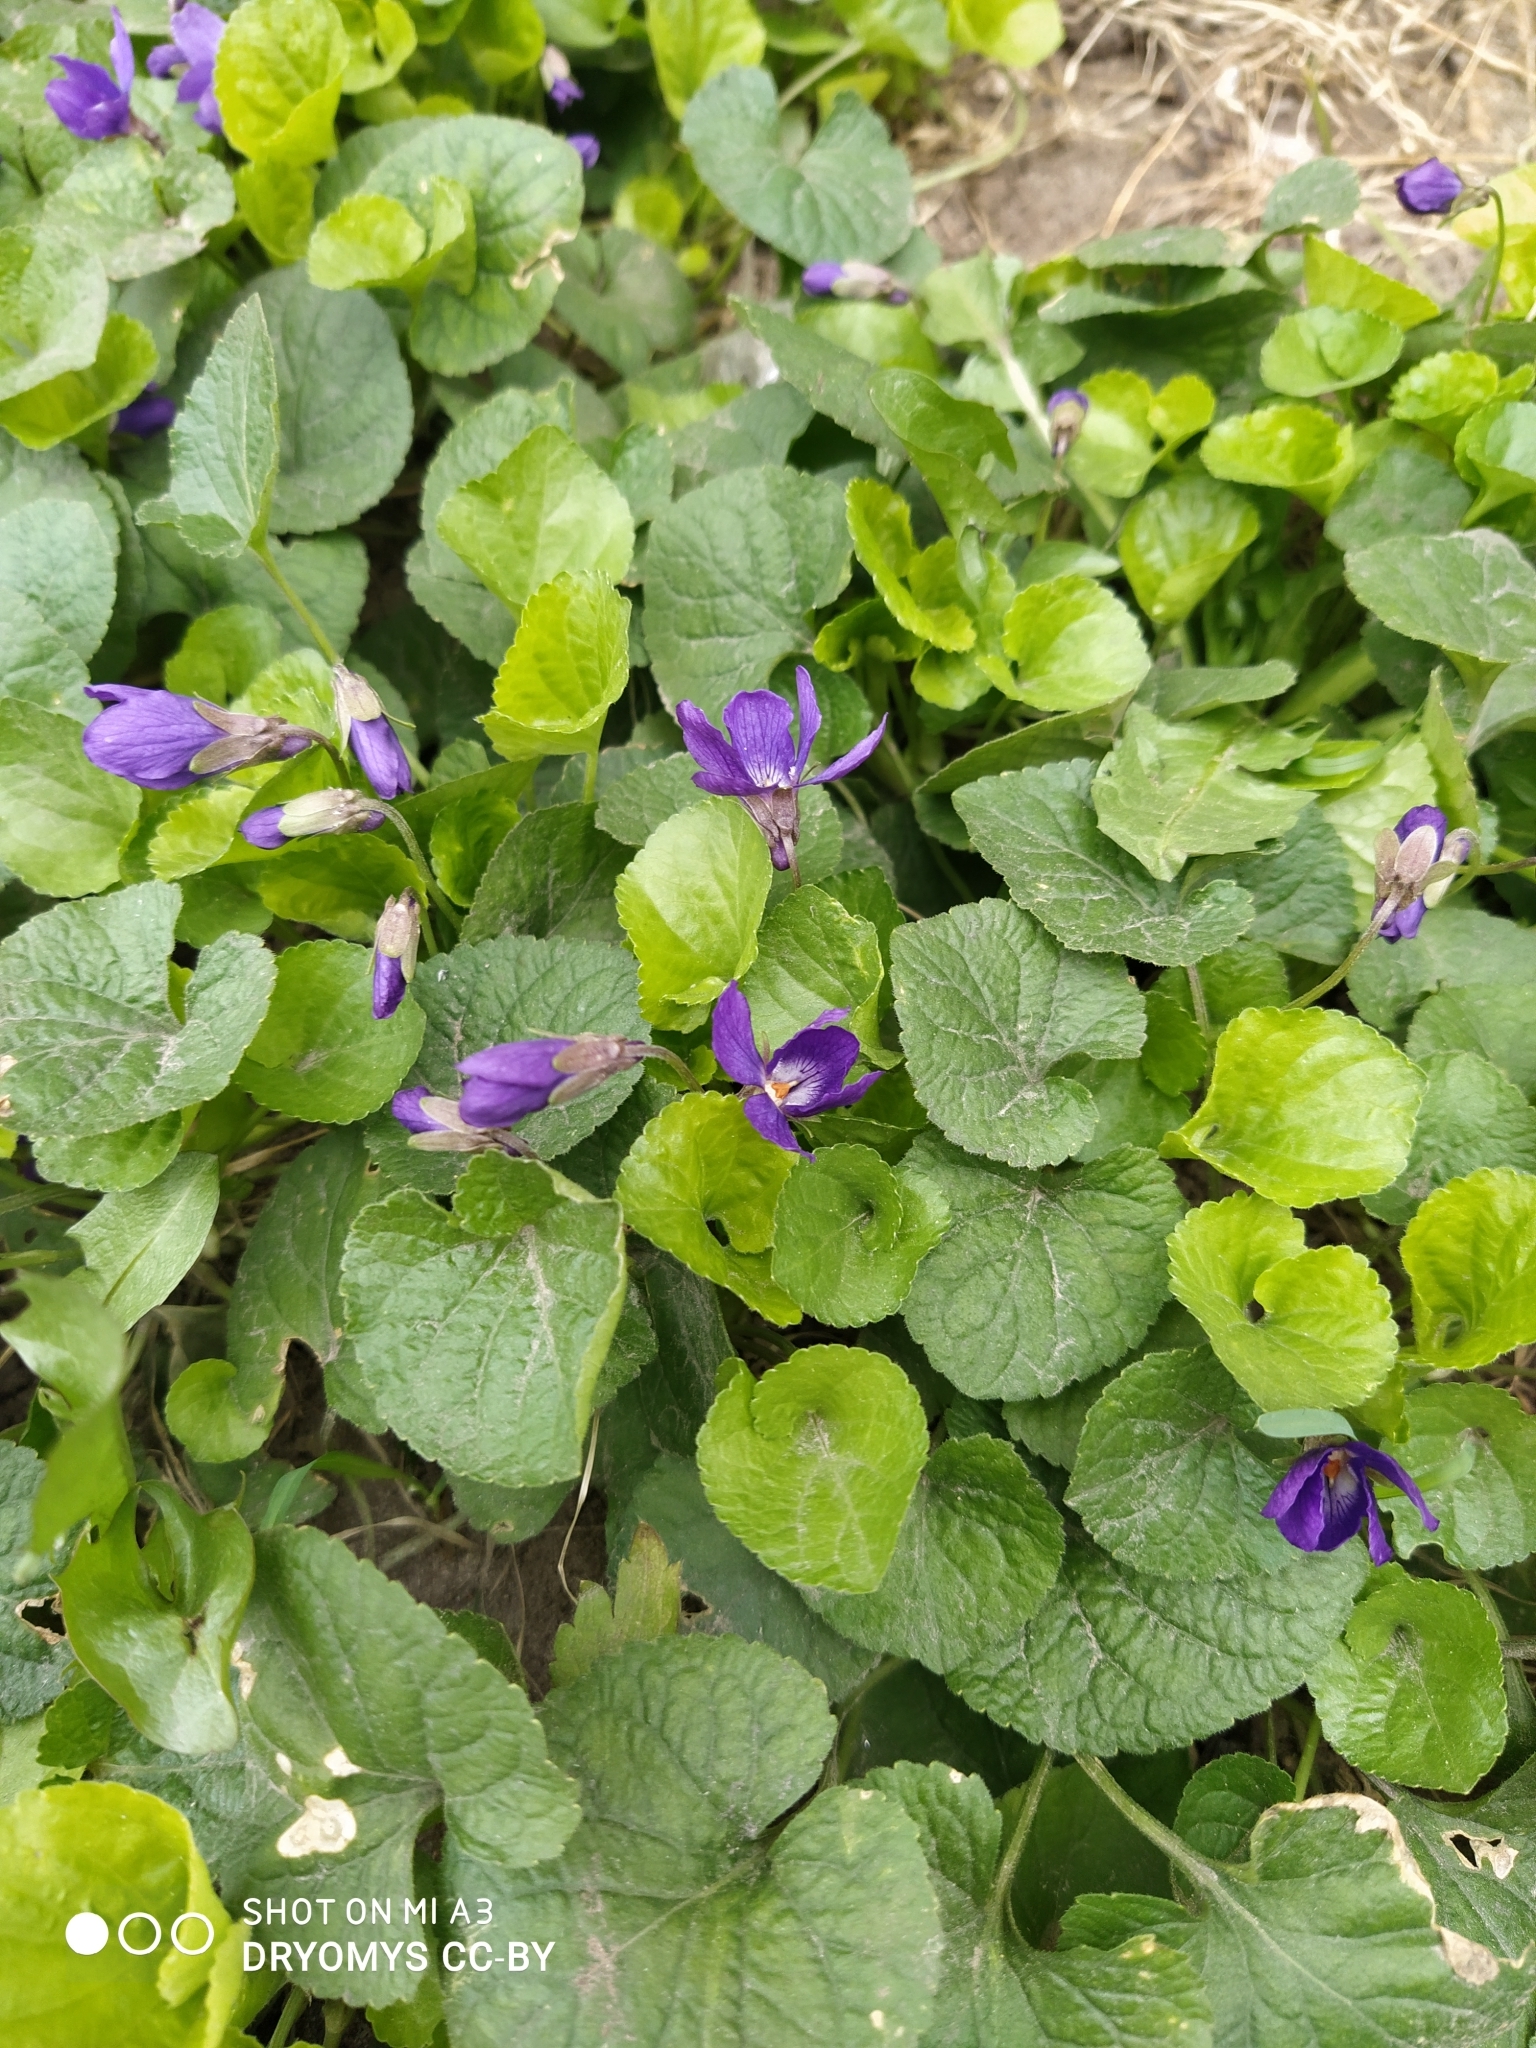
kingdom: Plantae
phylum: Tracheophyta
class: Magnoliopsida
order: Malpighiales
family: Violaceae
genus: Viola
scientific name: Viola odorata
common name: Sweet violet
